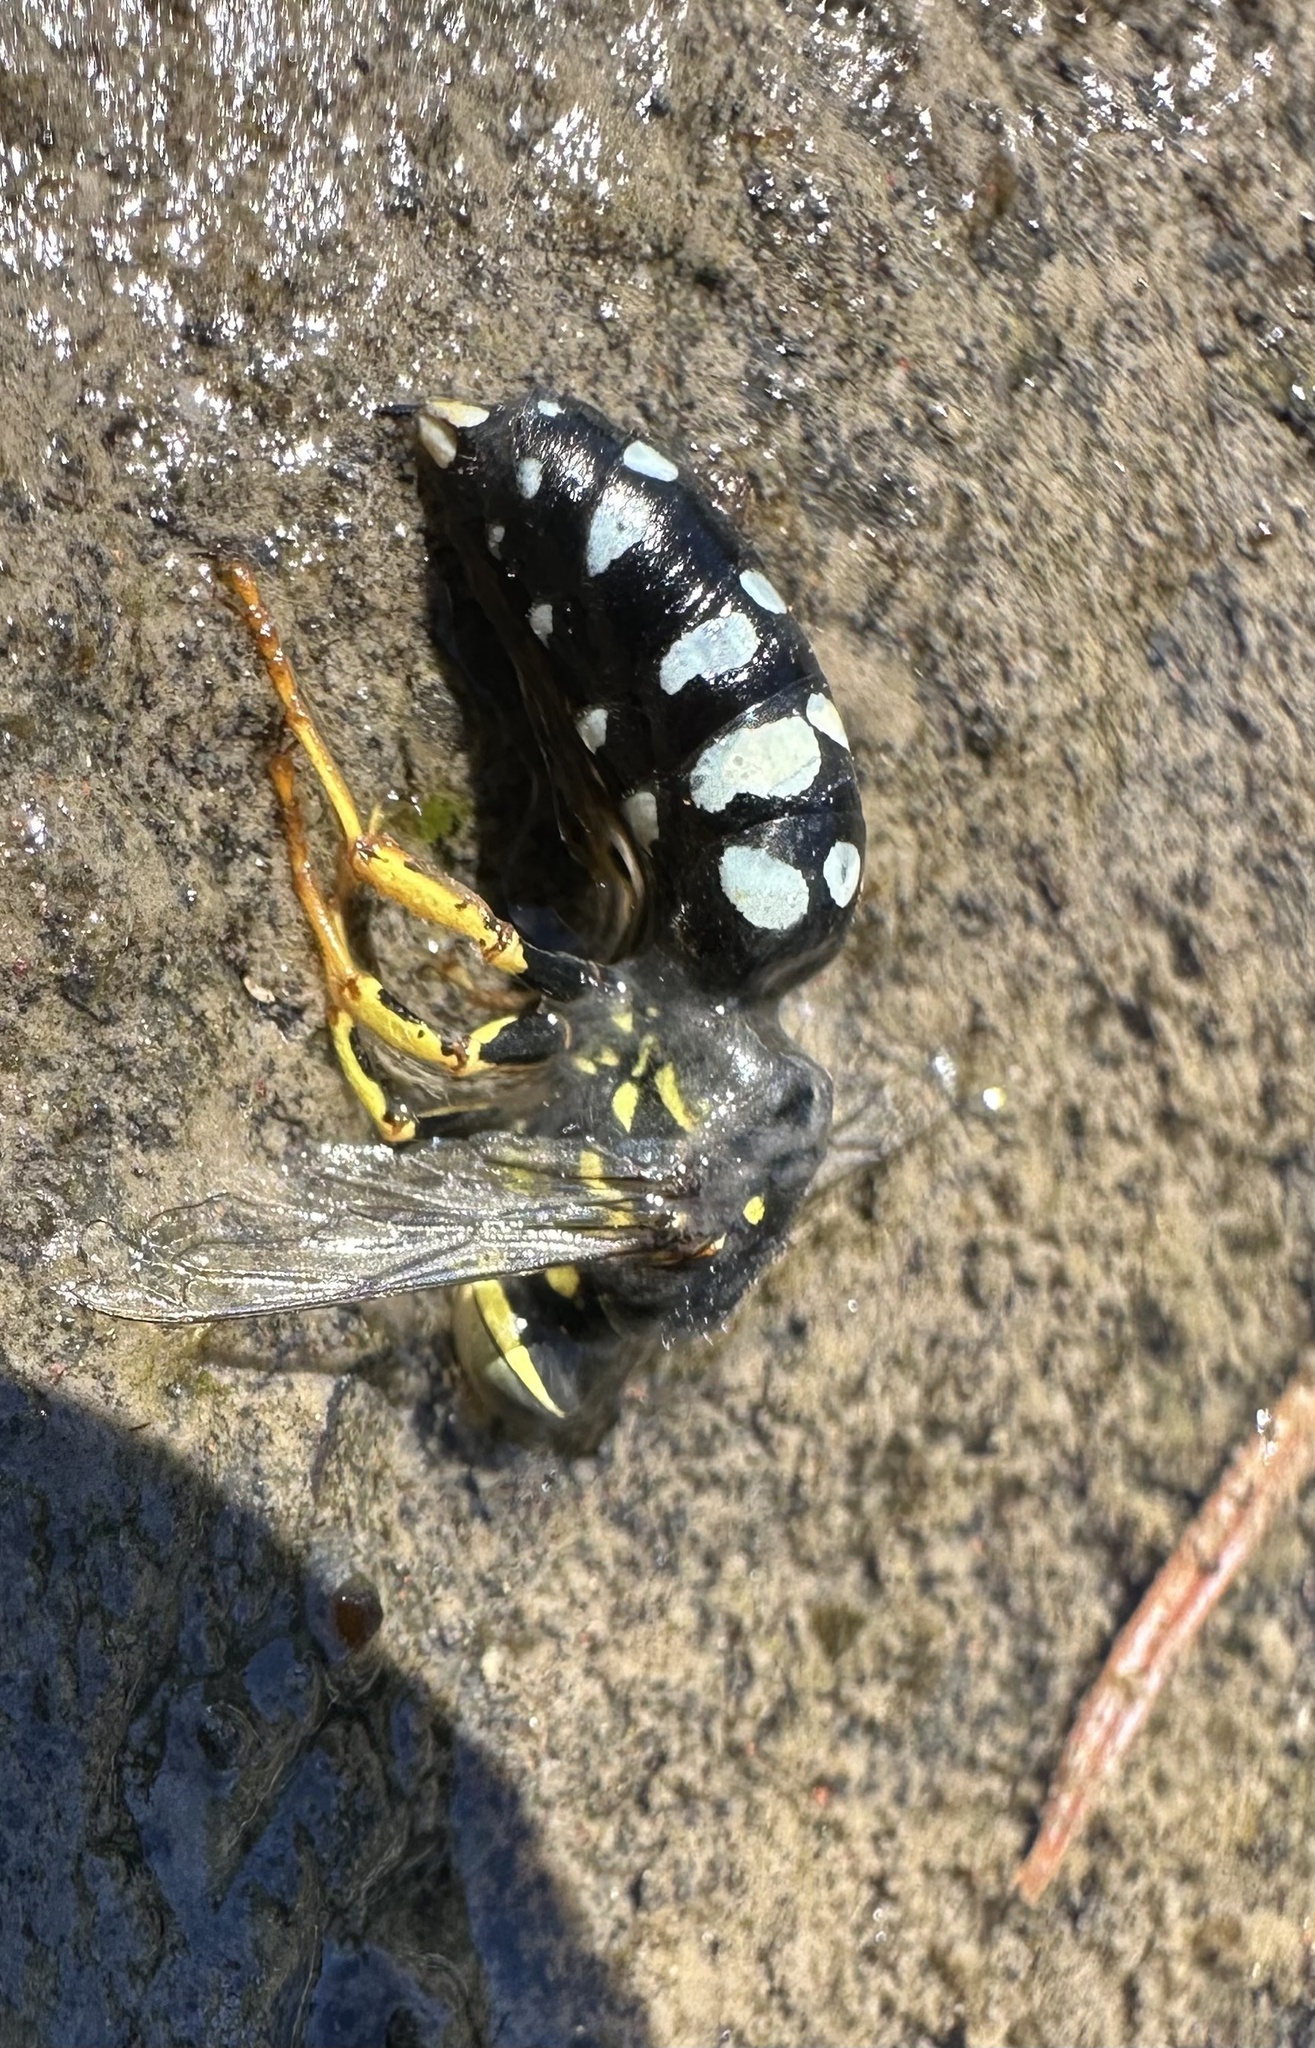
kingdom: Animalia
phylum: Arthropoda
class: Insecta
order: Hymenoptera
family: Crabronidae
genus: Zyzzyx
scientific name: Zyzzyx chilensis
